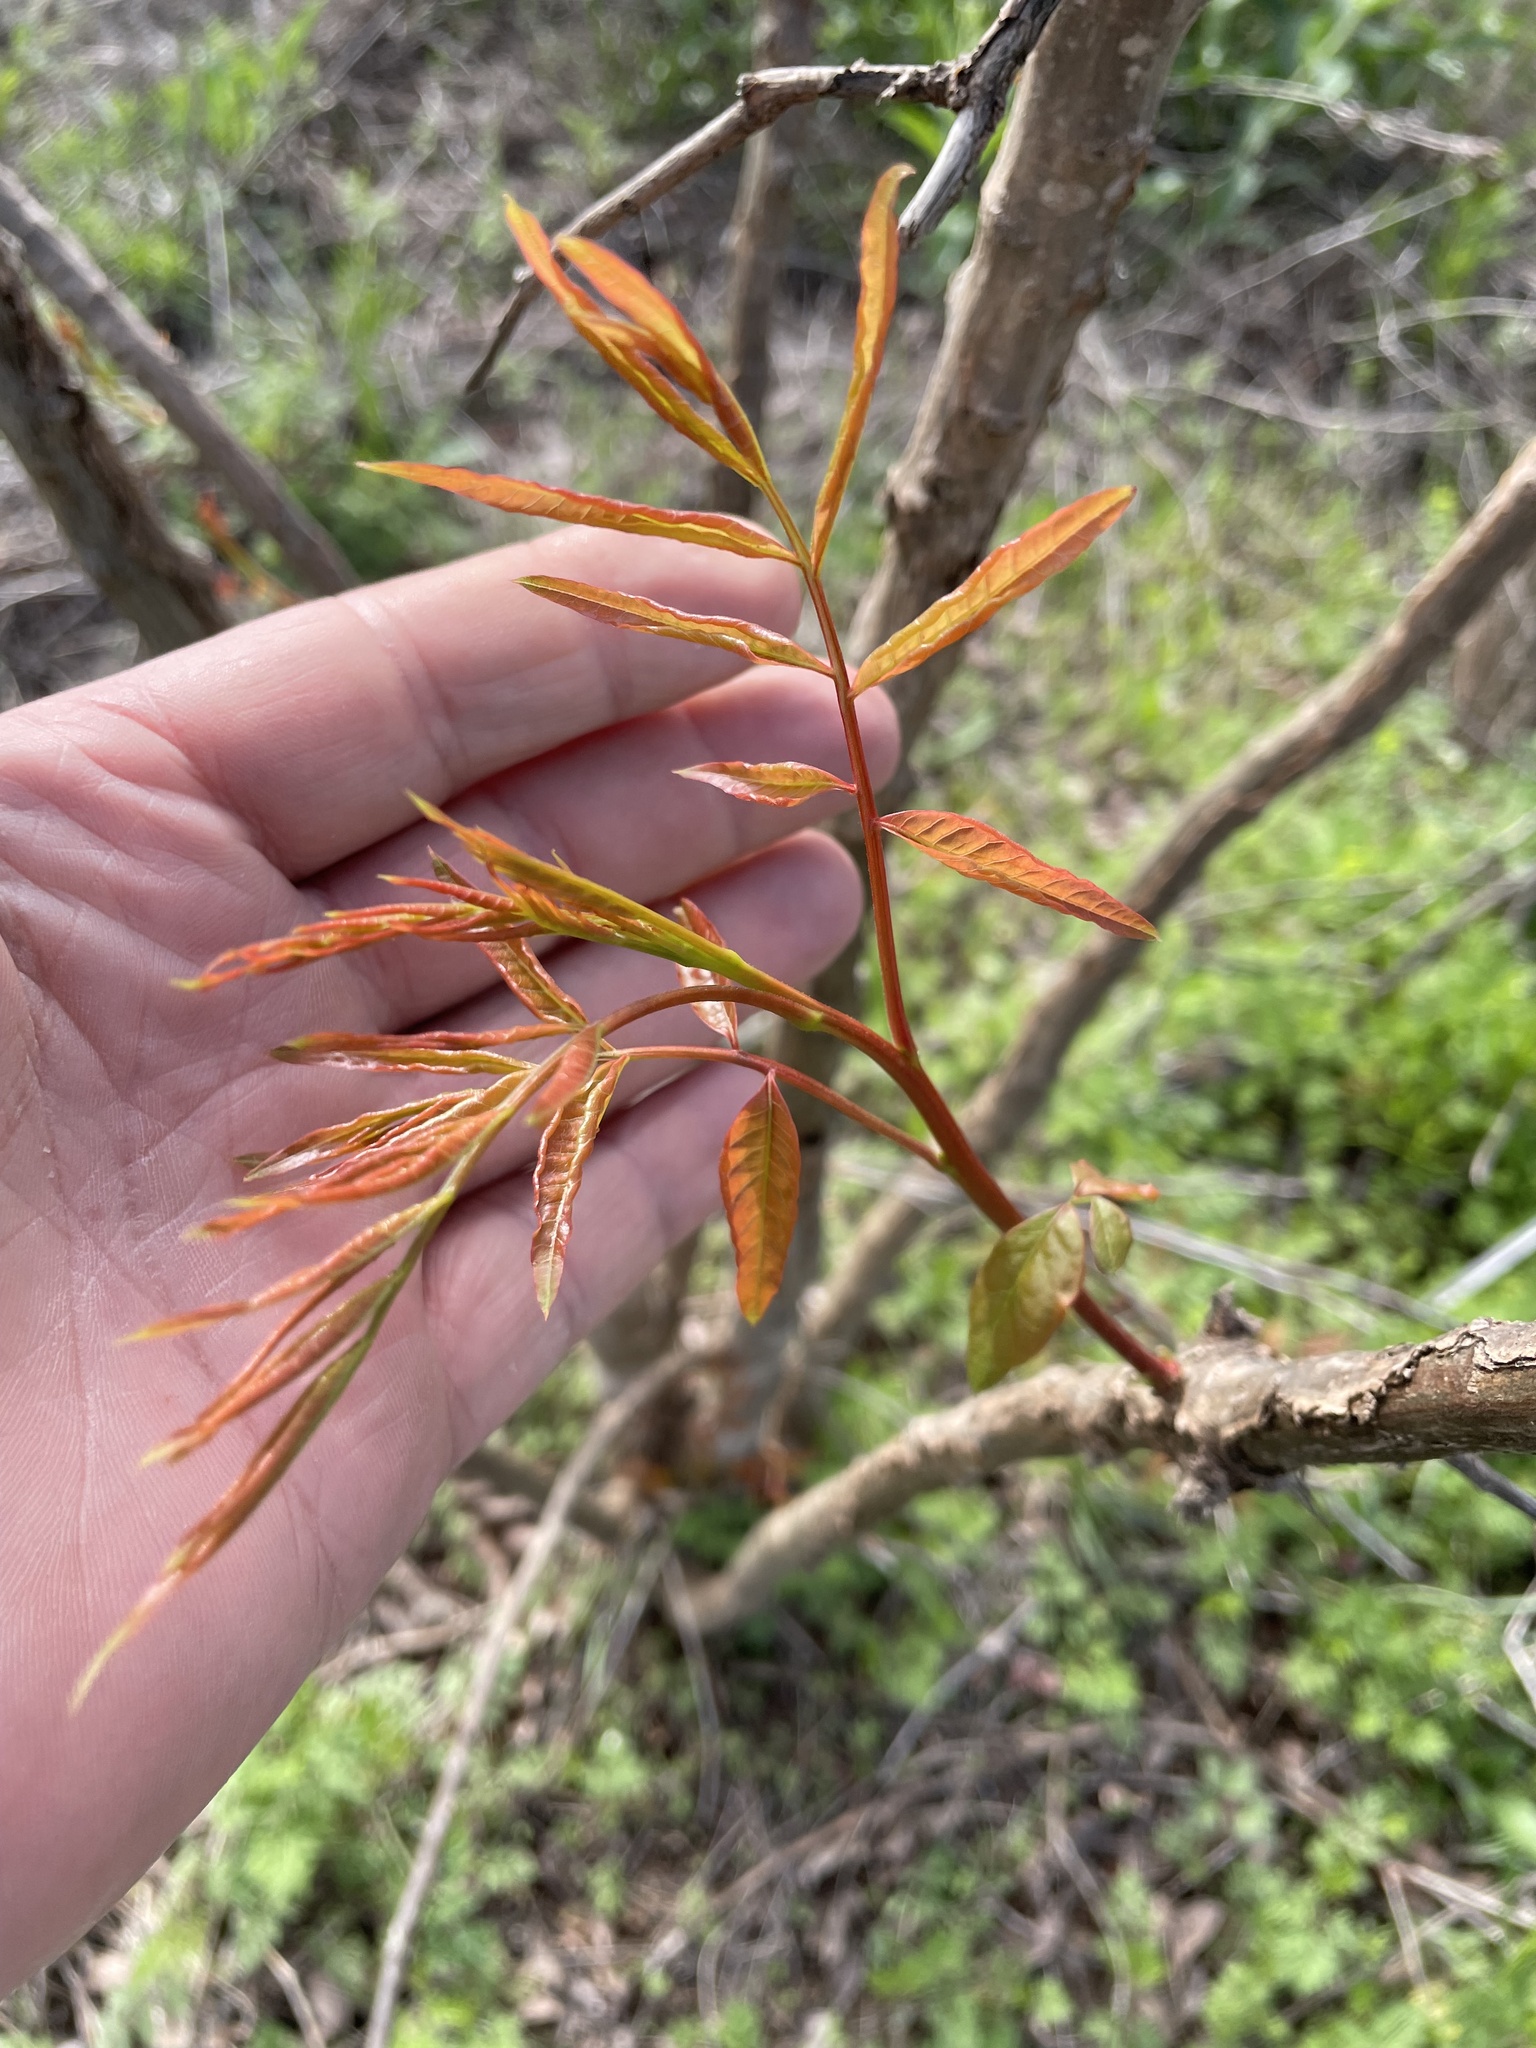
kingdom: Plantae
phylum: Tracheophyta
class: Magnoliopsida
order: Sapindales
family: Anacardiaceae
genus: Pistacia
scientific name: Pistacia chinensis
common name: Chinese pistache
